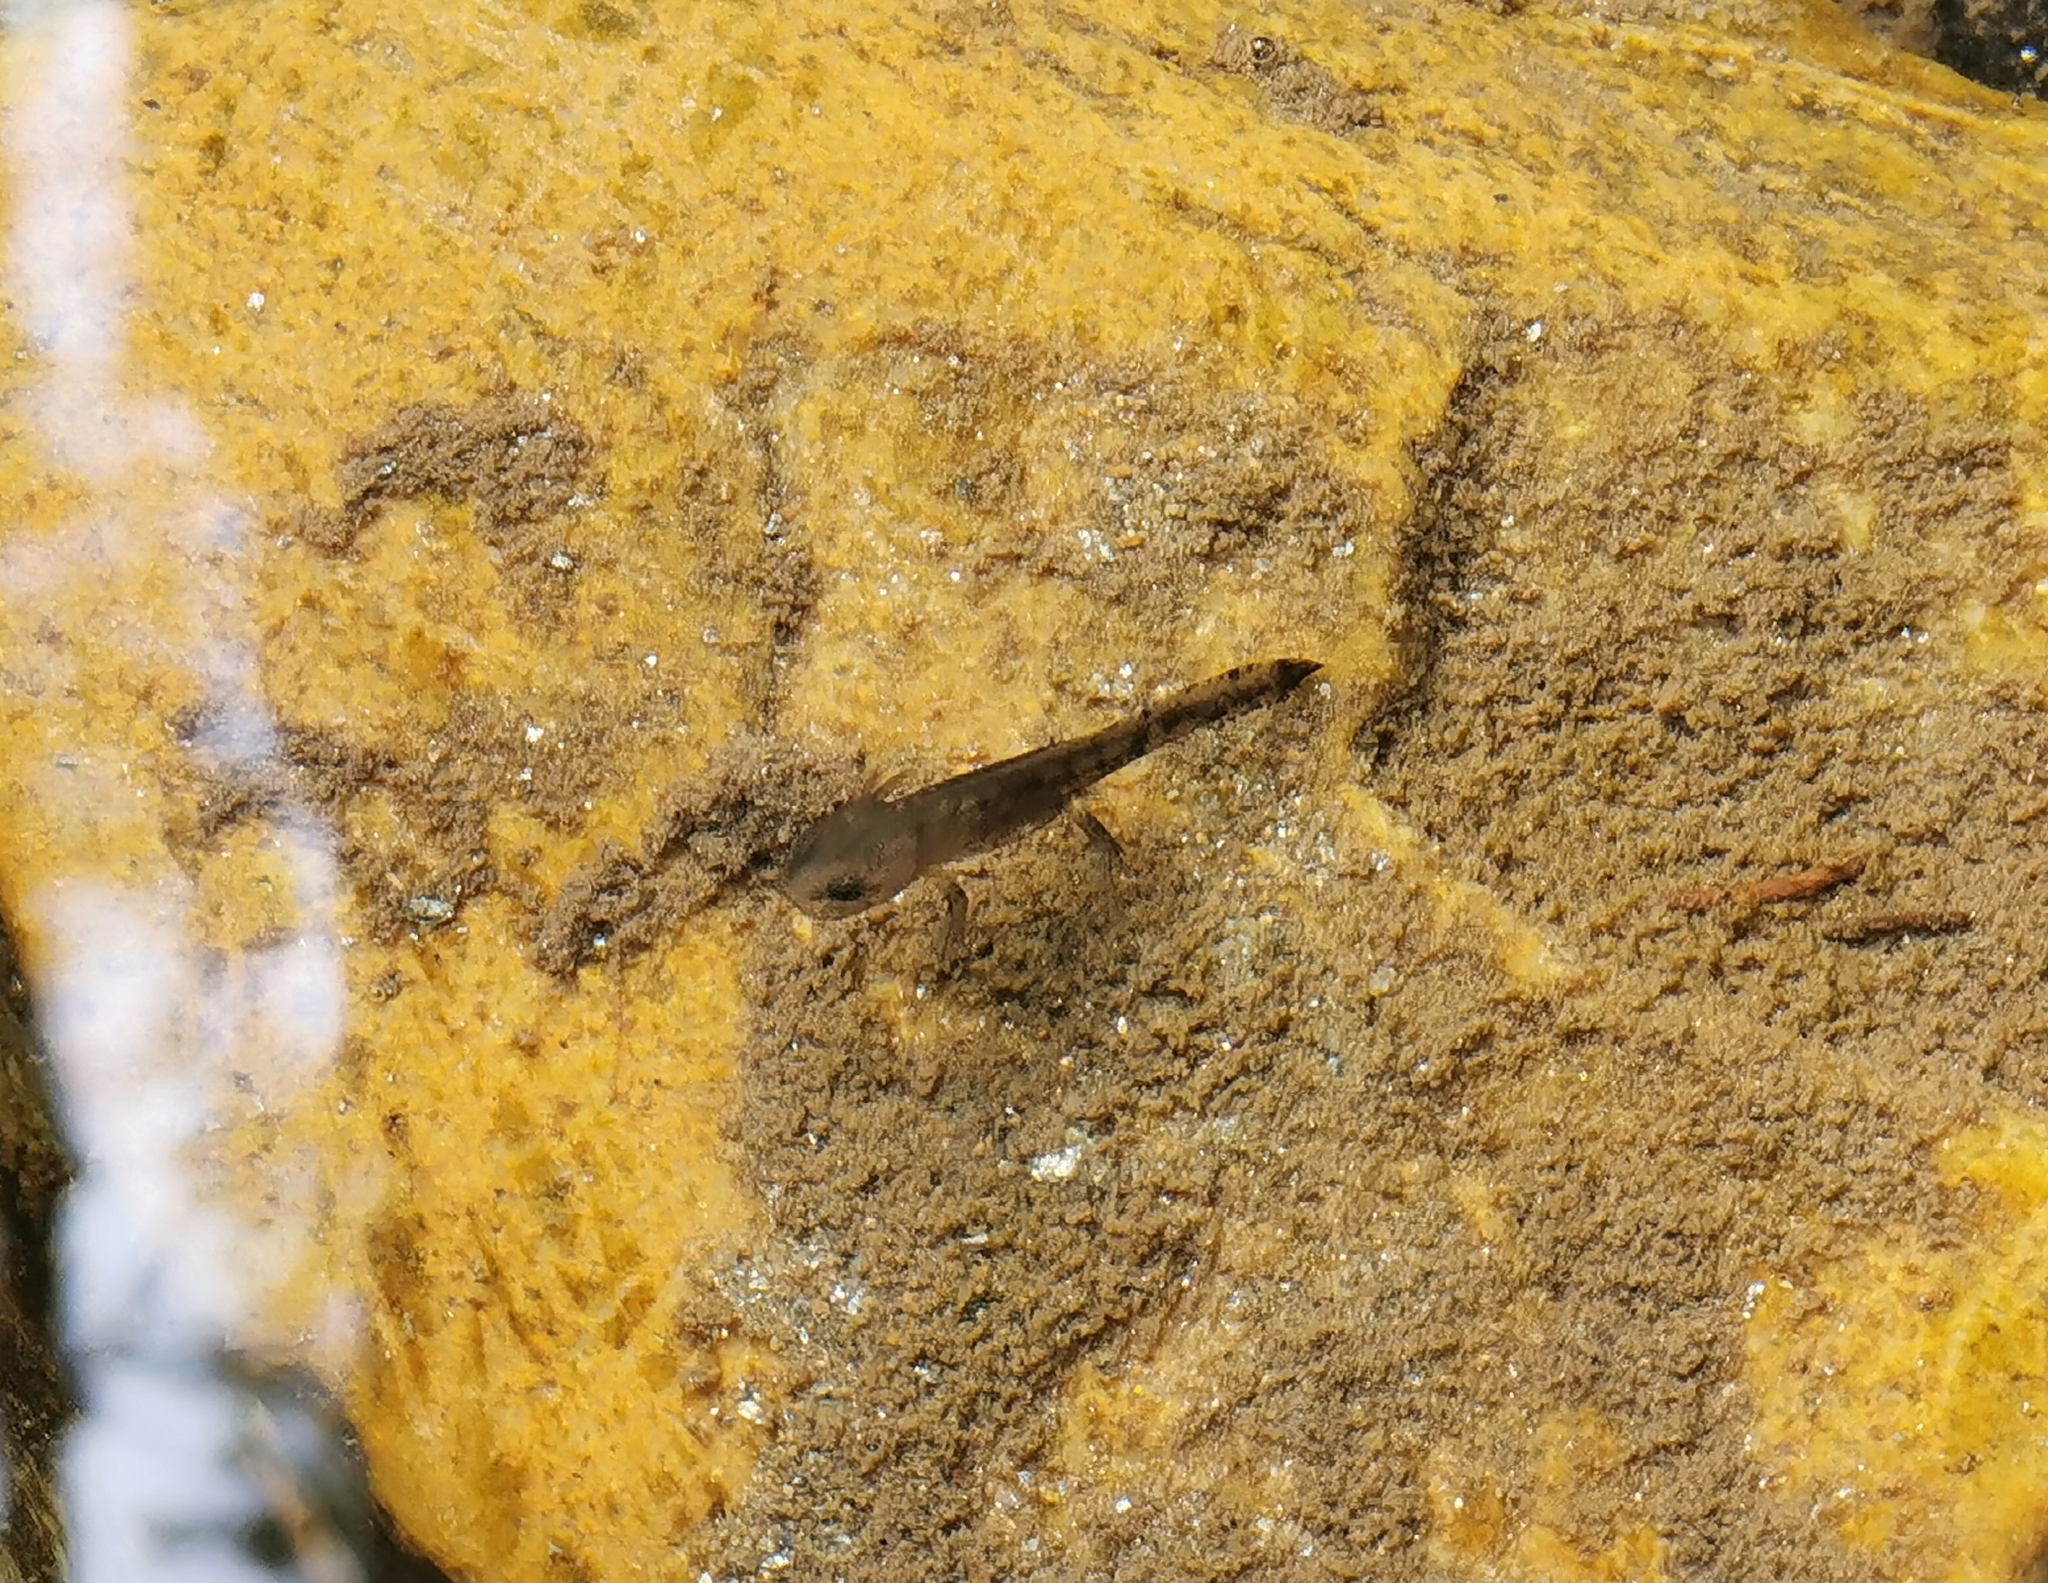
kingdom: Animalia
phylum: Chordata
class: Amphibia
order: Caudata
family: Salamandridae
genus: Salamandra
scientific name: Salamandra salamandra
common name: Fire salamander
